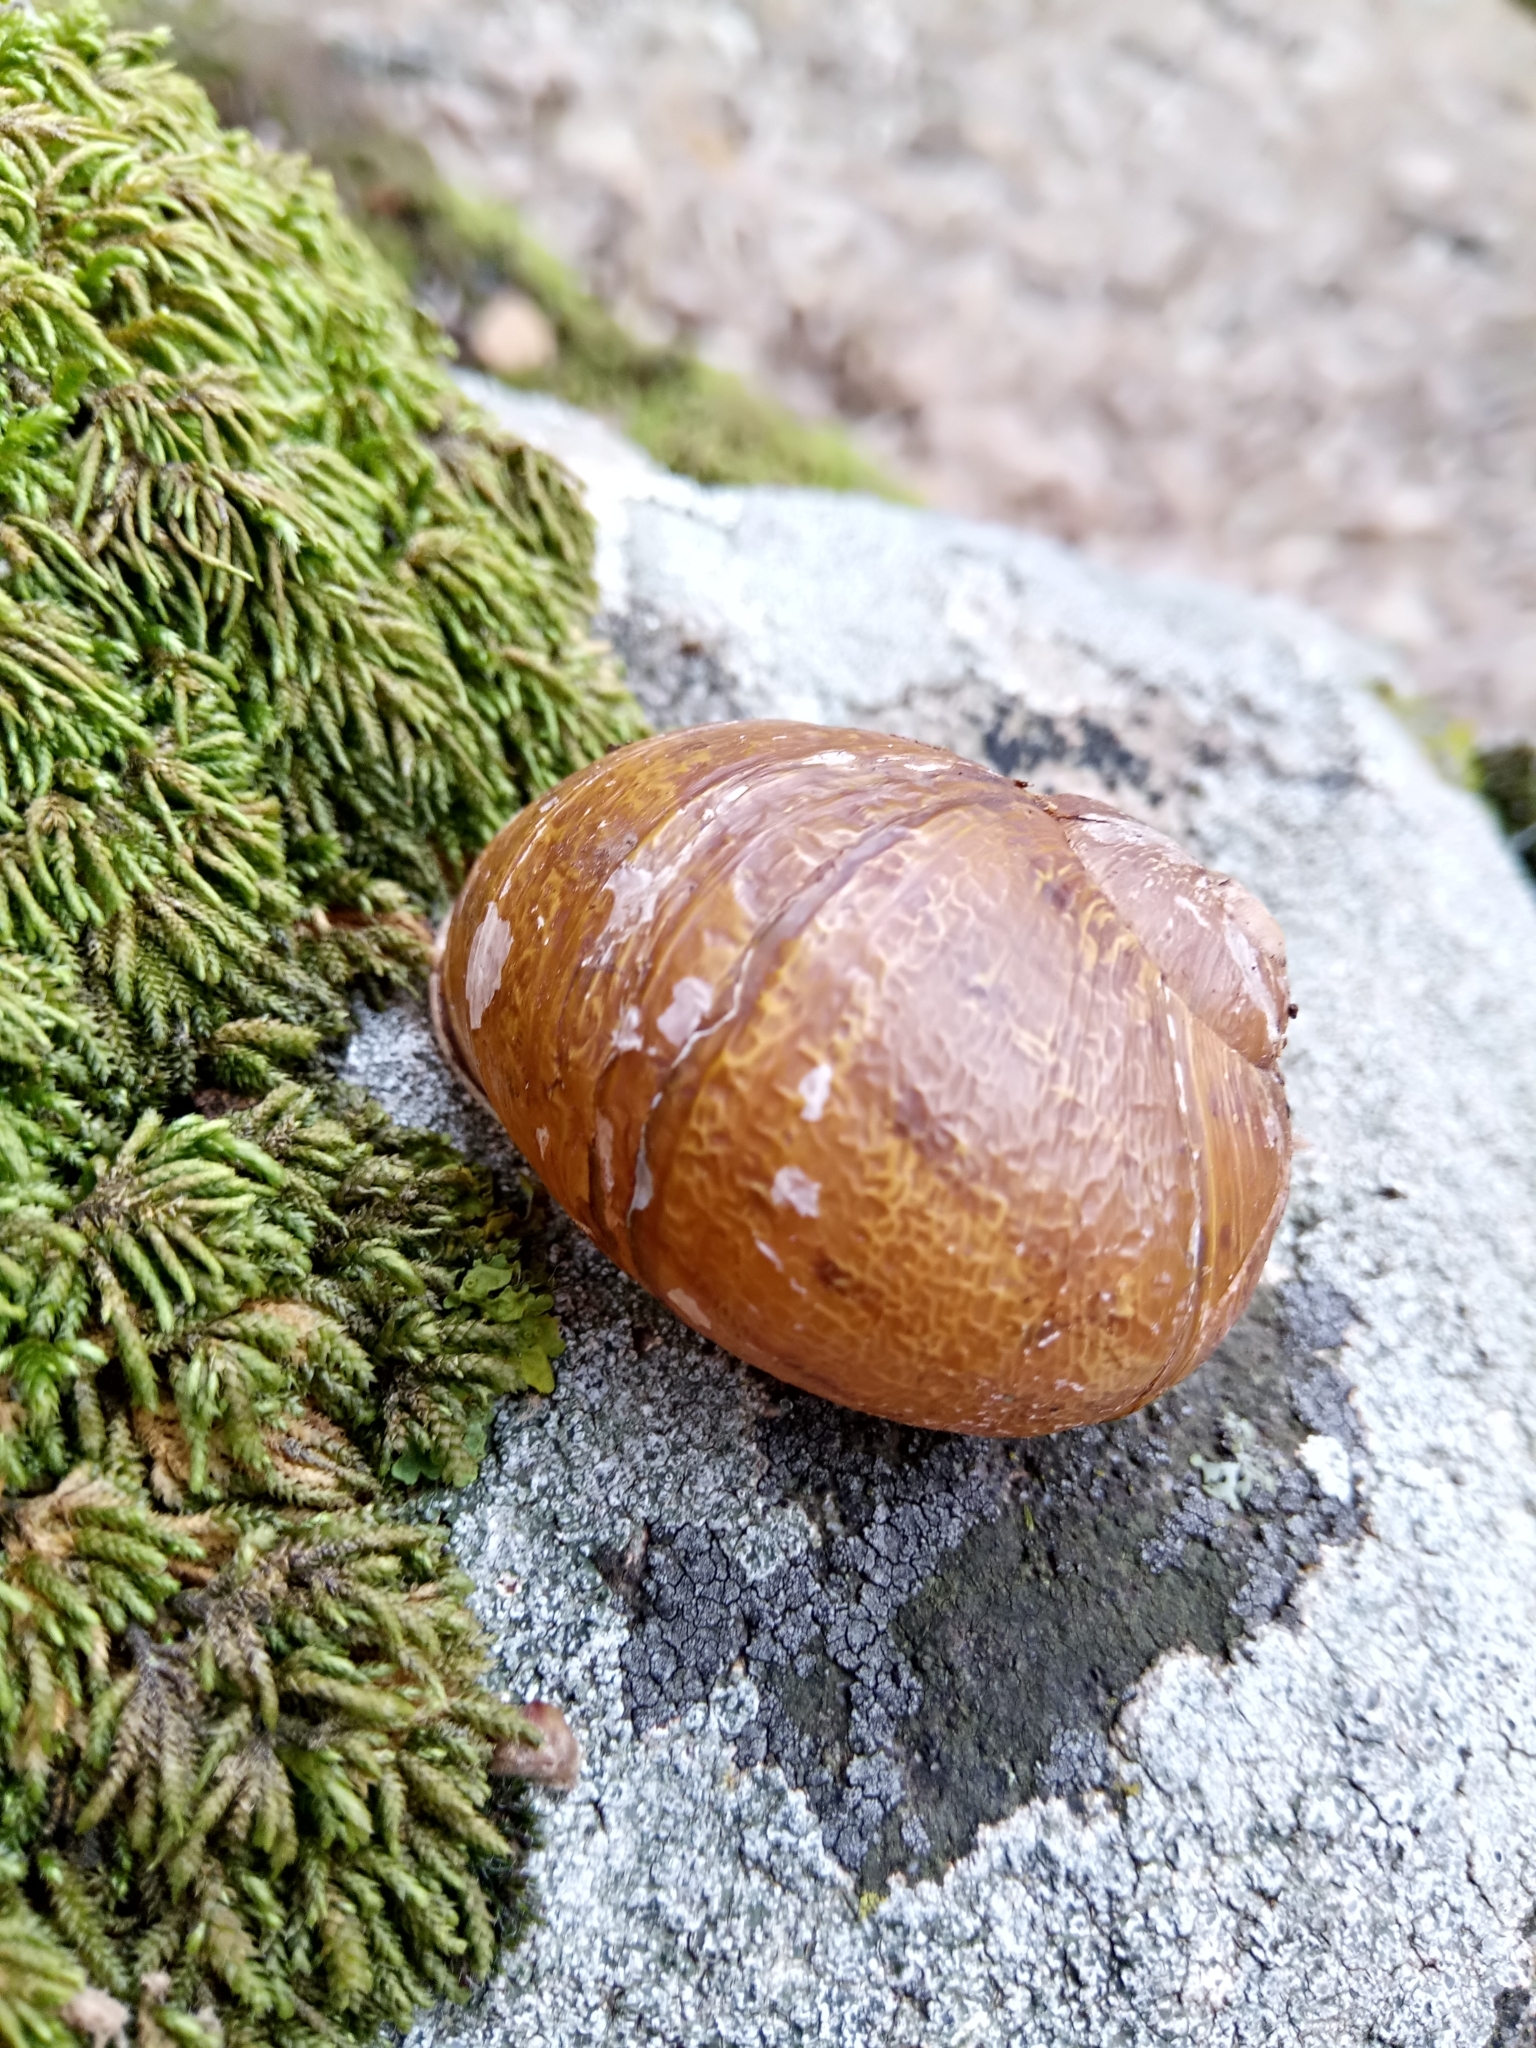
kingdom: Animalia
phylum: Mollusca
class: Gastropoda
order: Stylommatophora
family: Helicidae
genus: Cantareus
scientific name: Cantareus apertus
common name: Green gardensnail
